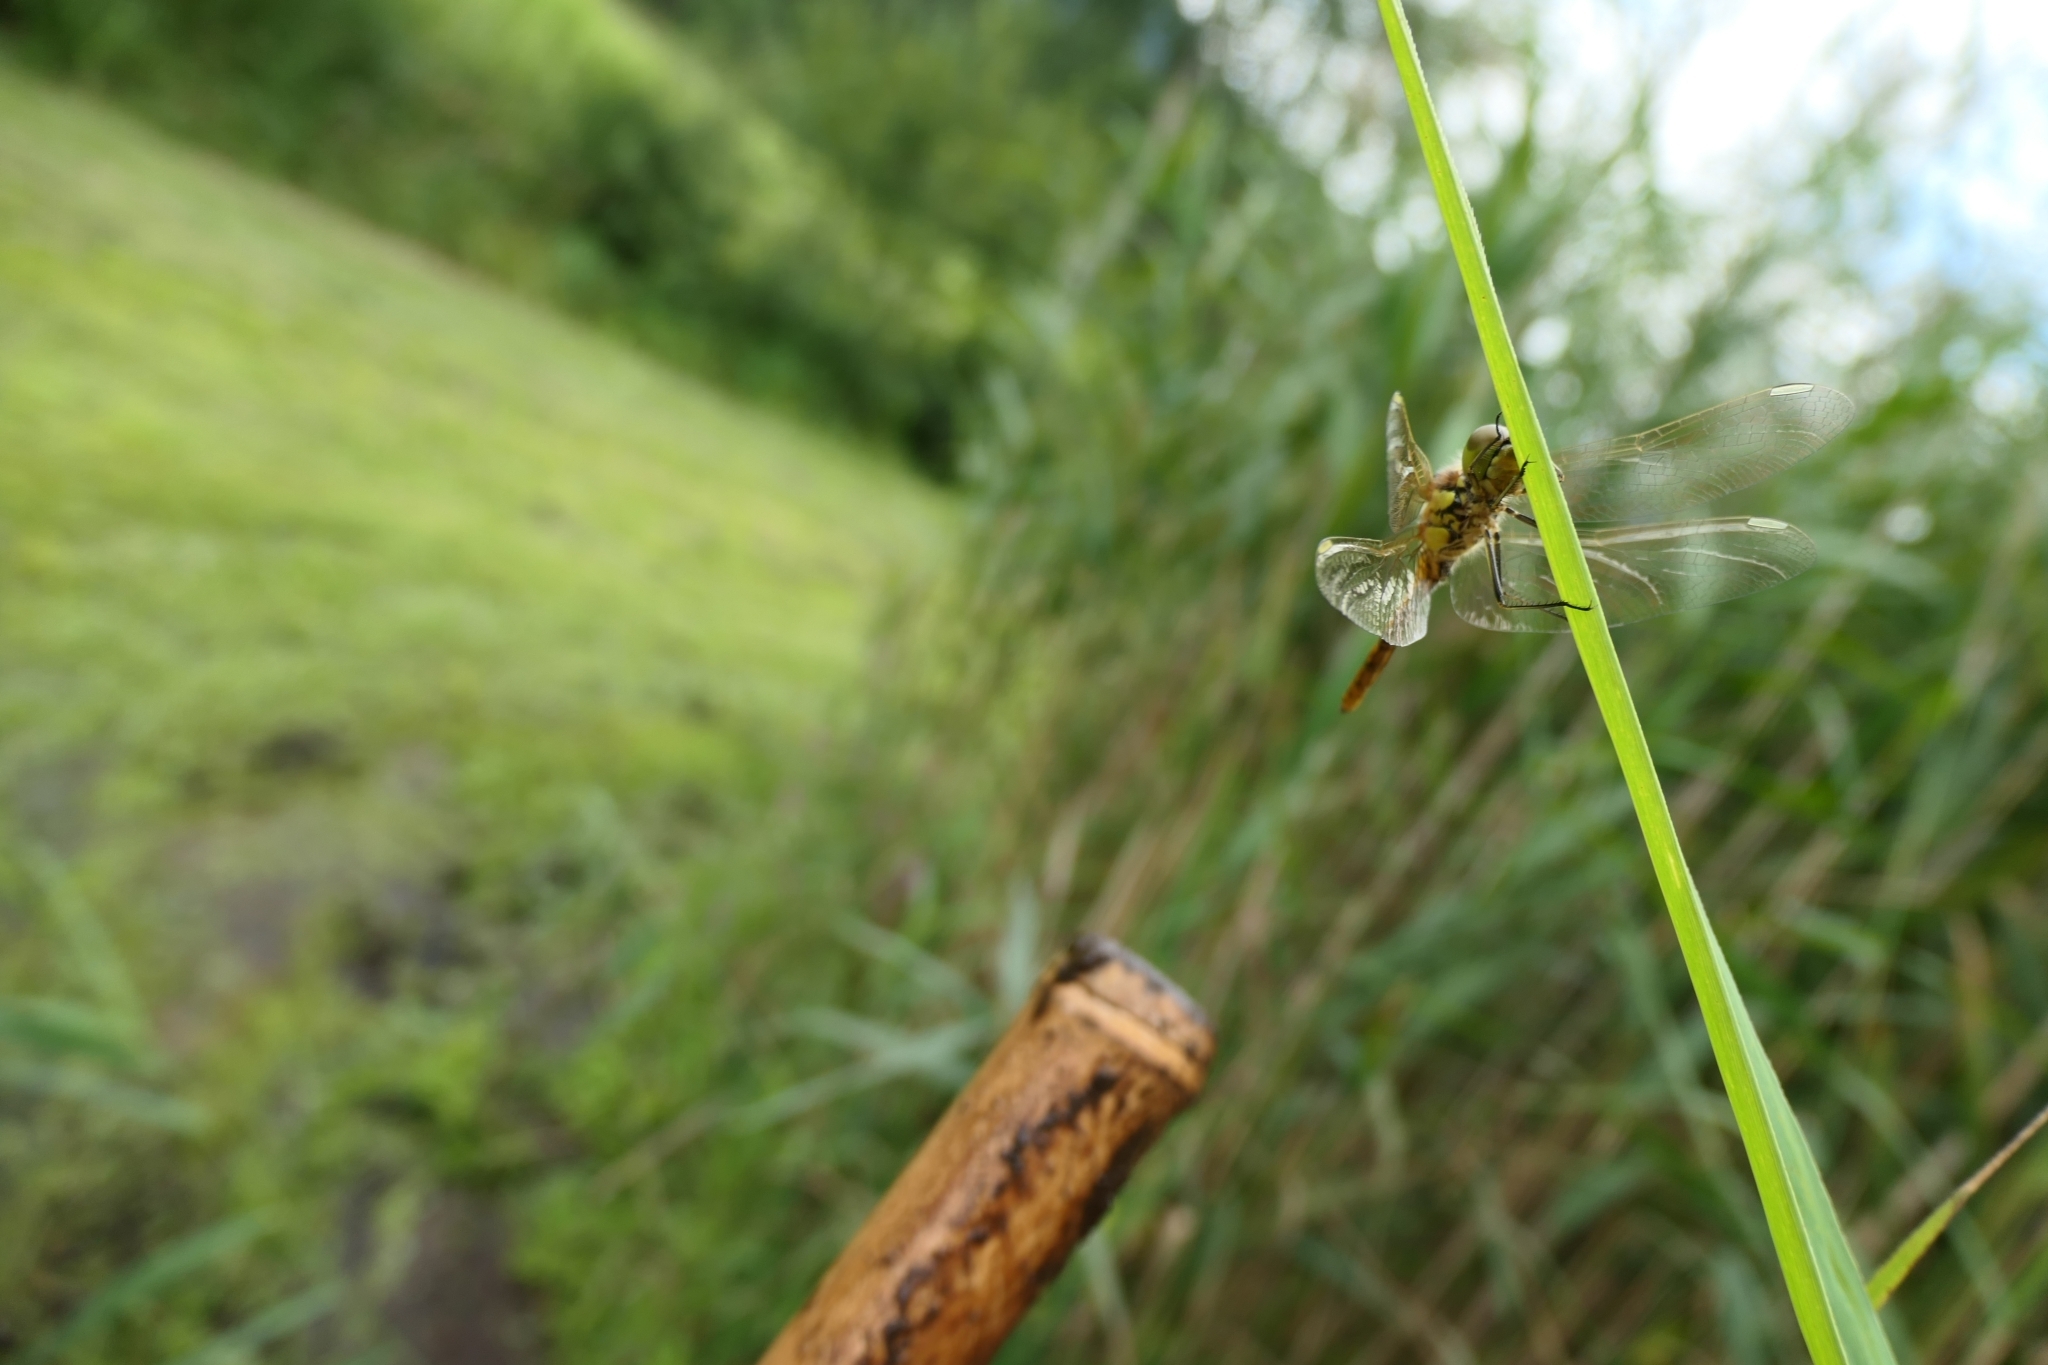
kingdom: Animalia
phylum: Arthropoda
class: Insecta
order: Odonata
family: Libellulidae
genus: Sympetrum
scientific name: Sympetrum vulgatum
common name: Vagrant darter
